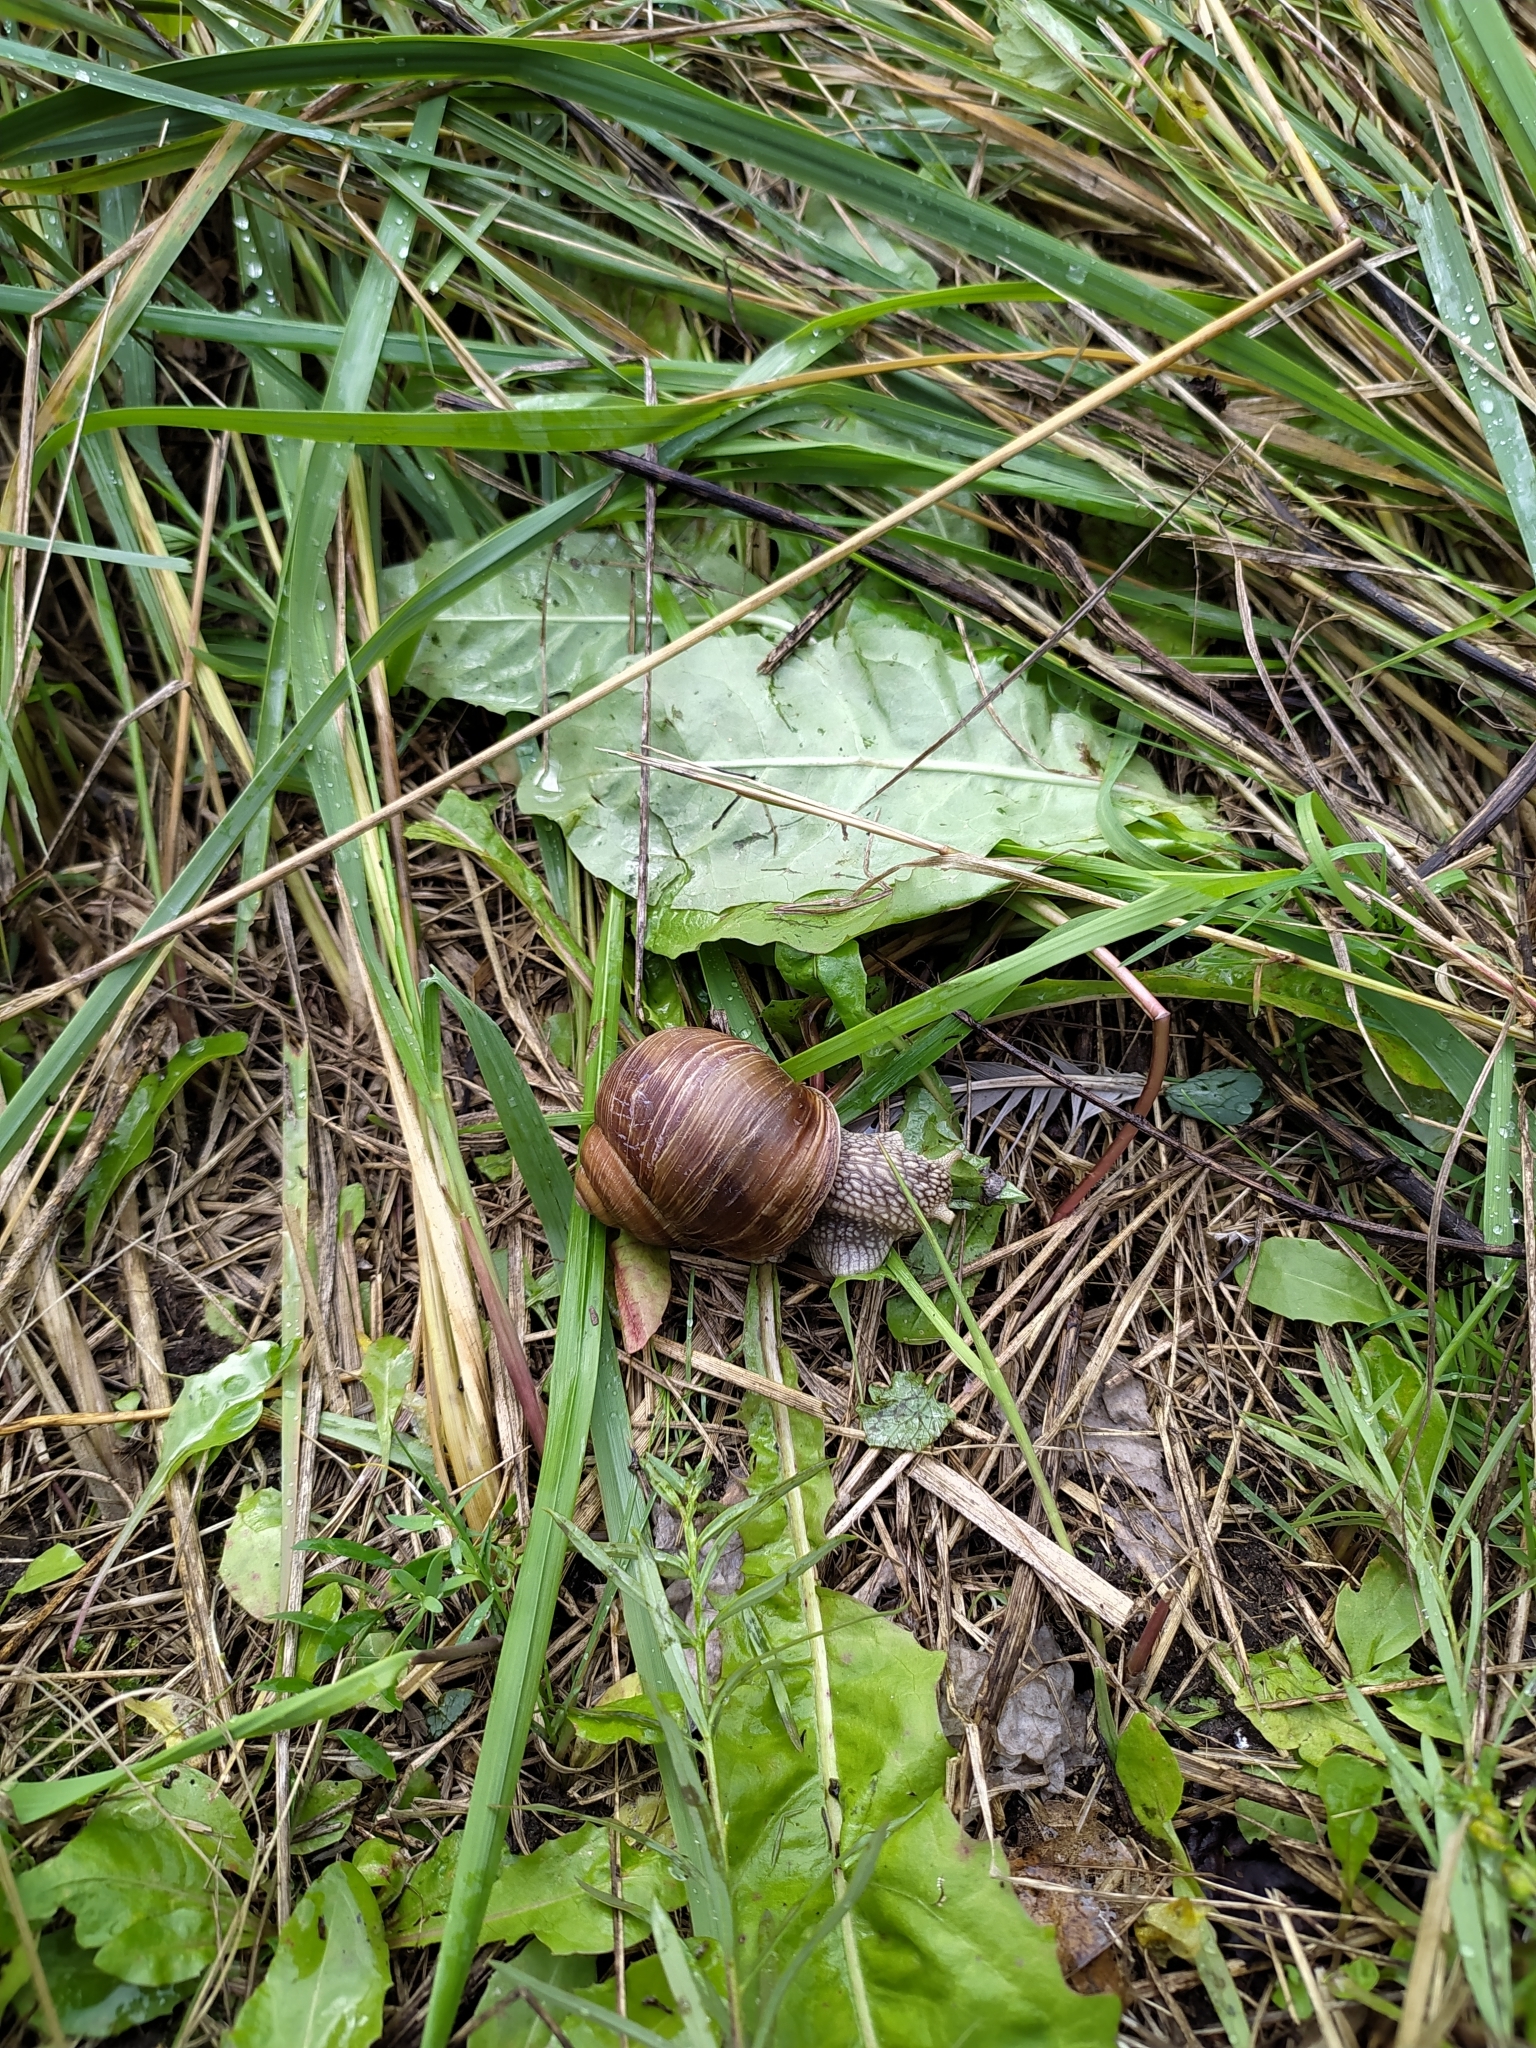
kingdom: Animalia
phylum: Mollusca
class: Gastropoda
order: Stylommatophora
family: Helicidae
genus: Helix
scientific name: Helix pomatia
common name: Roman snail
